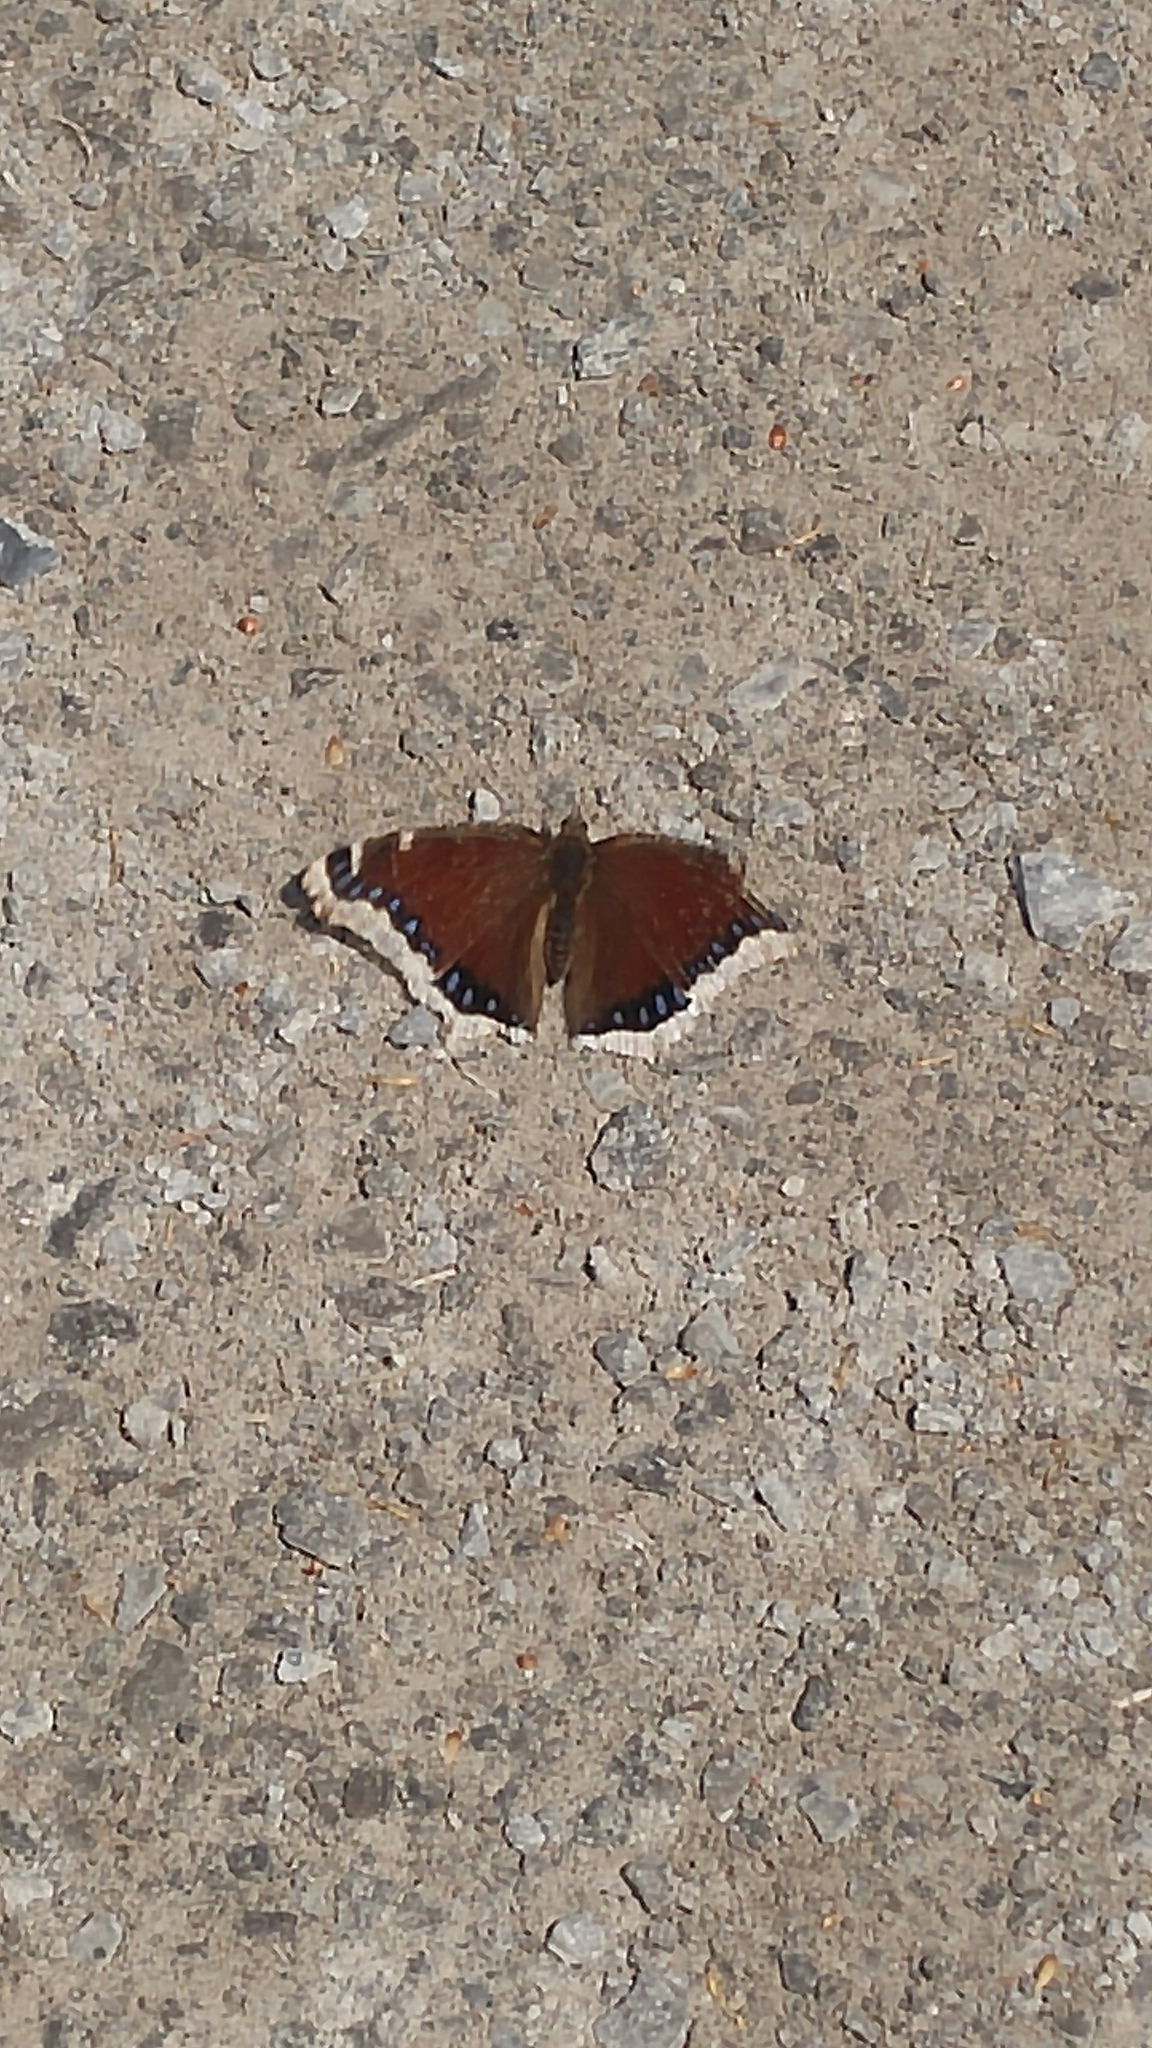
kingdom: Animalia
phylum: Arthropoda
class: Insecta
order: Lepidoptera
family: Nymphalidae
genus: Nymphalis
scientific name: Nymphalis antiopa
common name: Camberwell beauty
